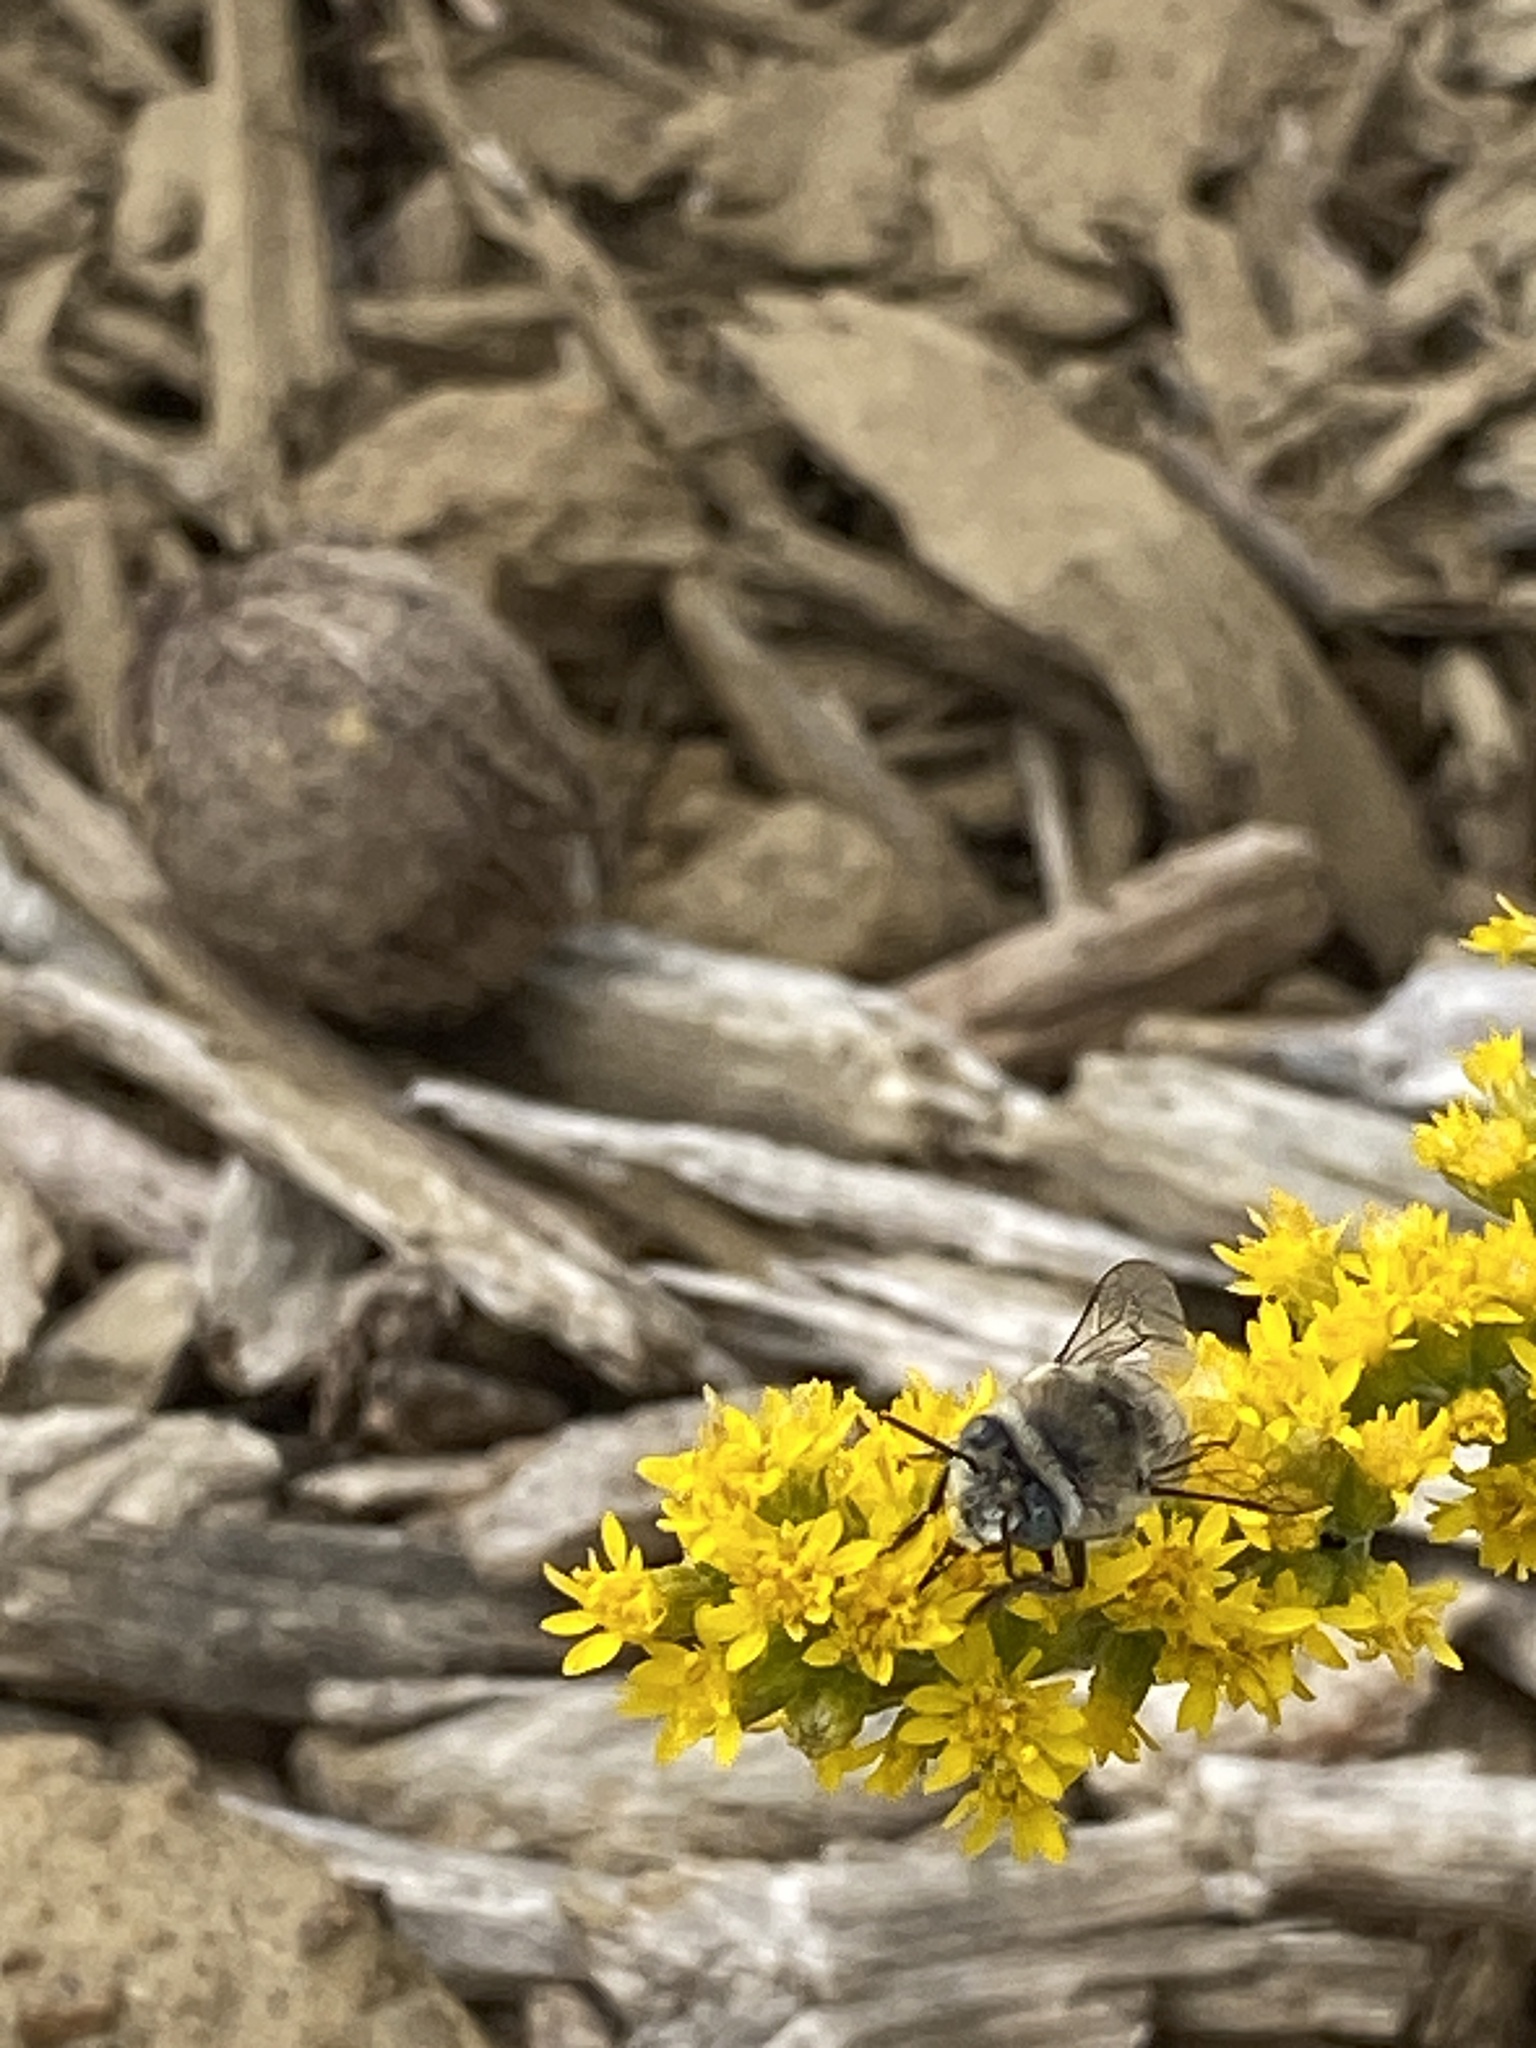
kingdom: Animalia
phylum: Arthropoda
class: Insecta
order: Hymenoptera
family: Apidae
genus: Anthophora
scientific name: Anthophora urbana
